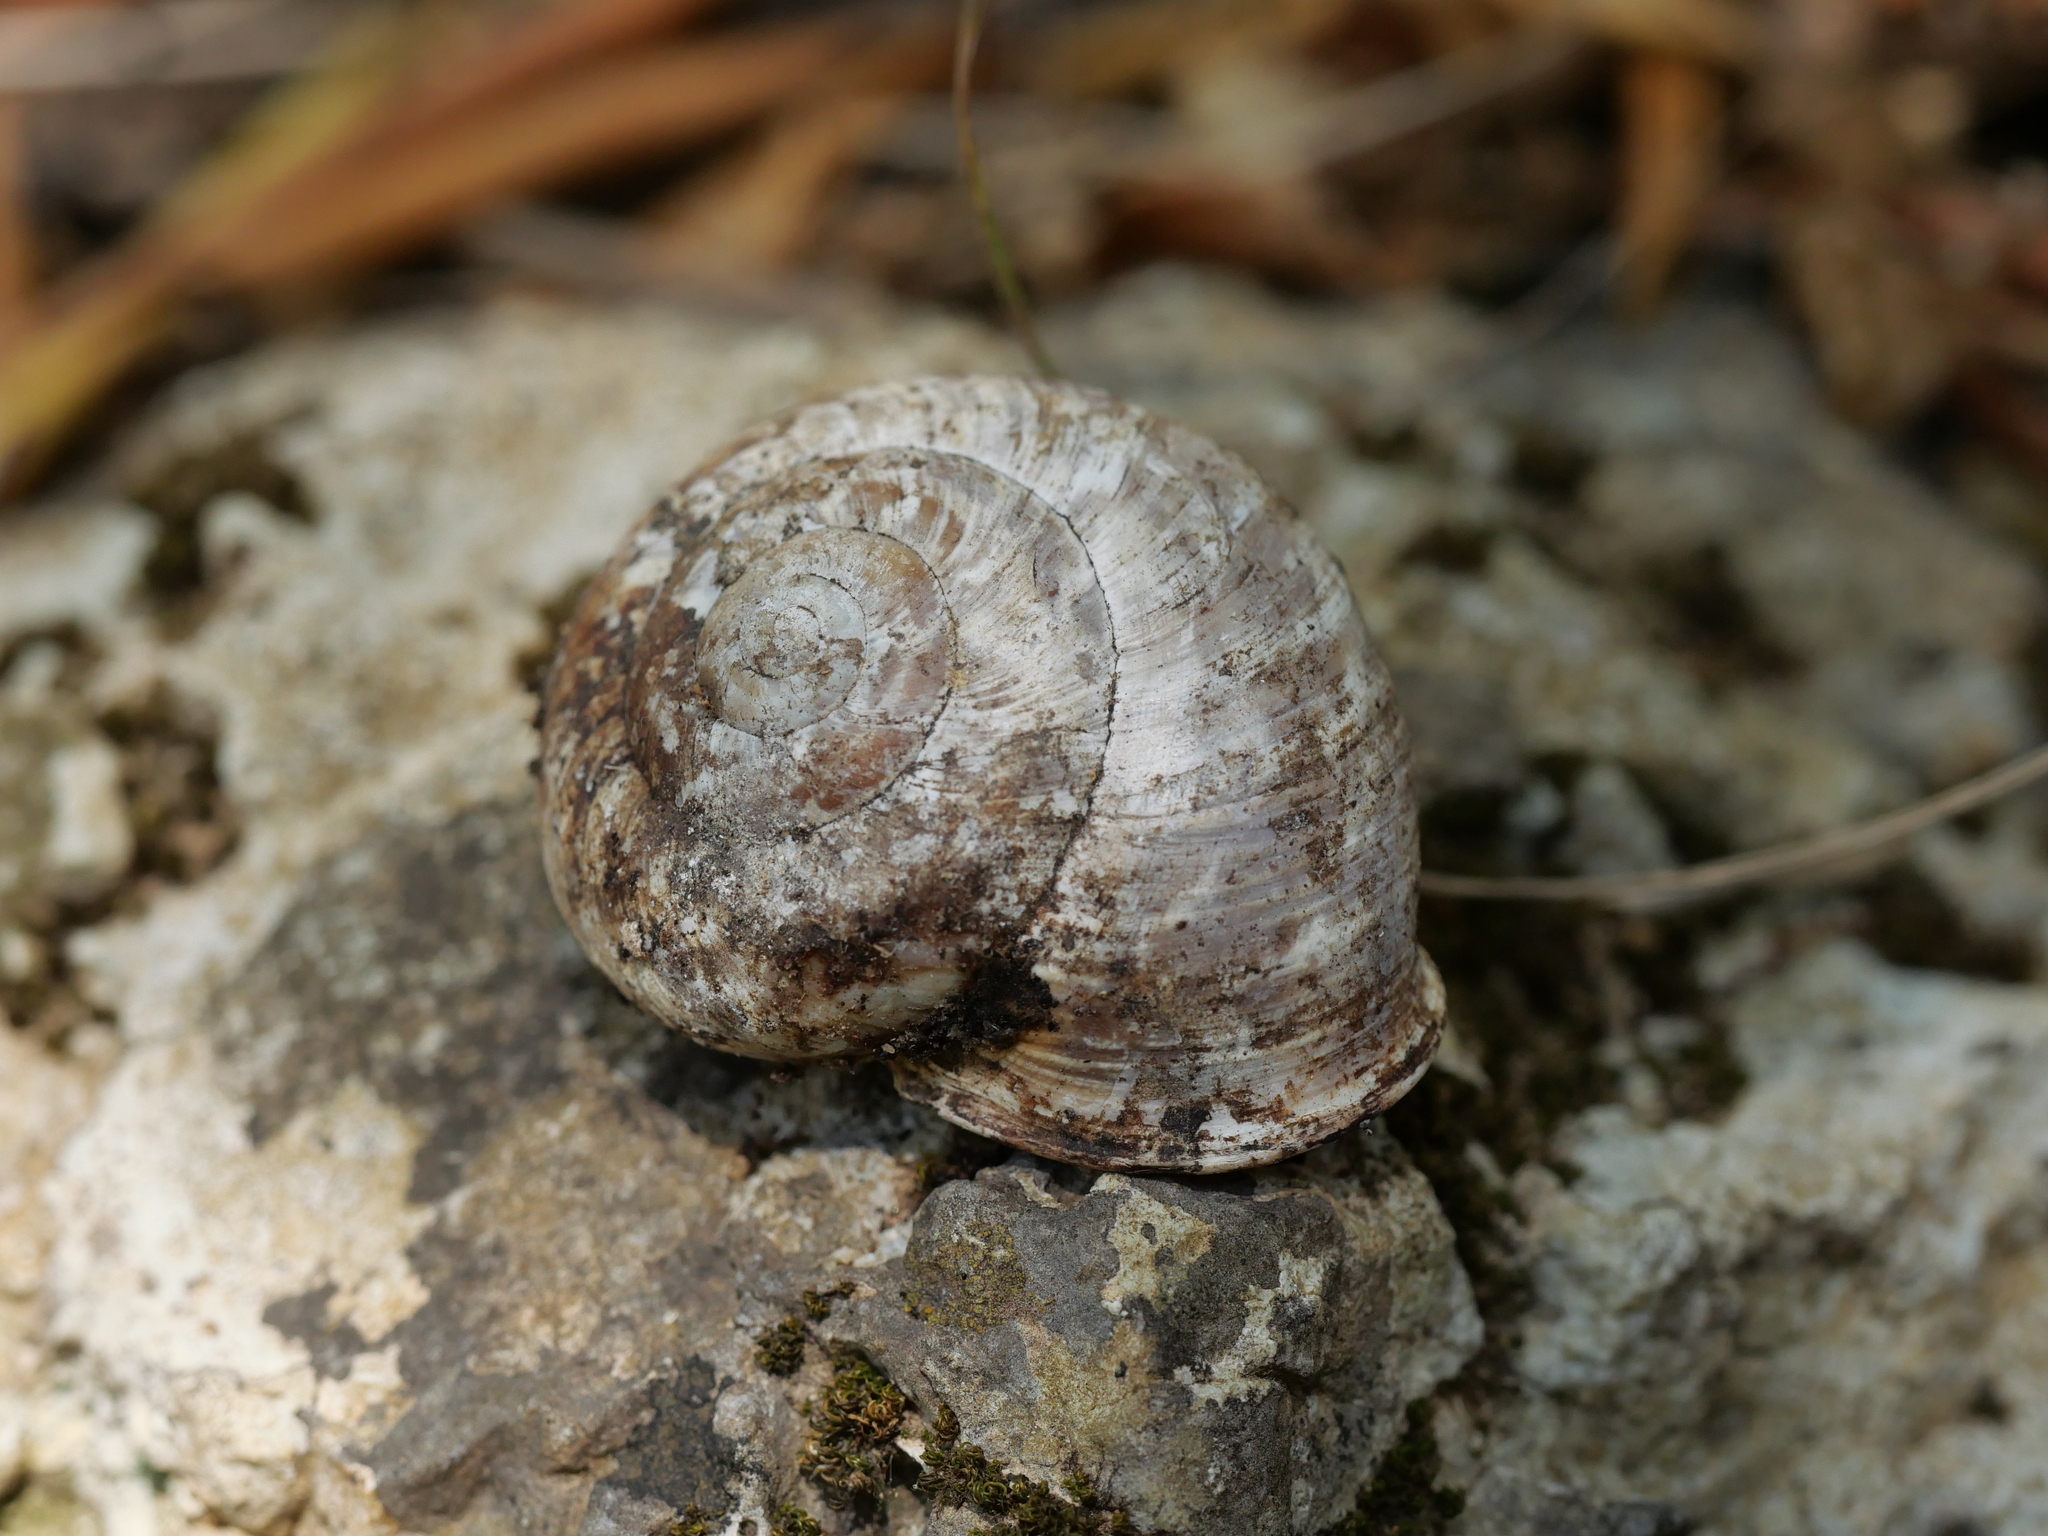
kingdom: Animalia
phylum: Mollusca
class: Gastropoda
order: Stylommatophora
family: Helicidae
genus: Neocrassa
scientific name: Neocrassa neocrassa
